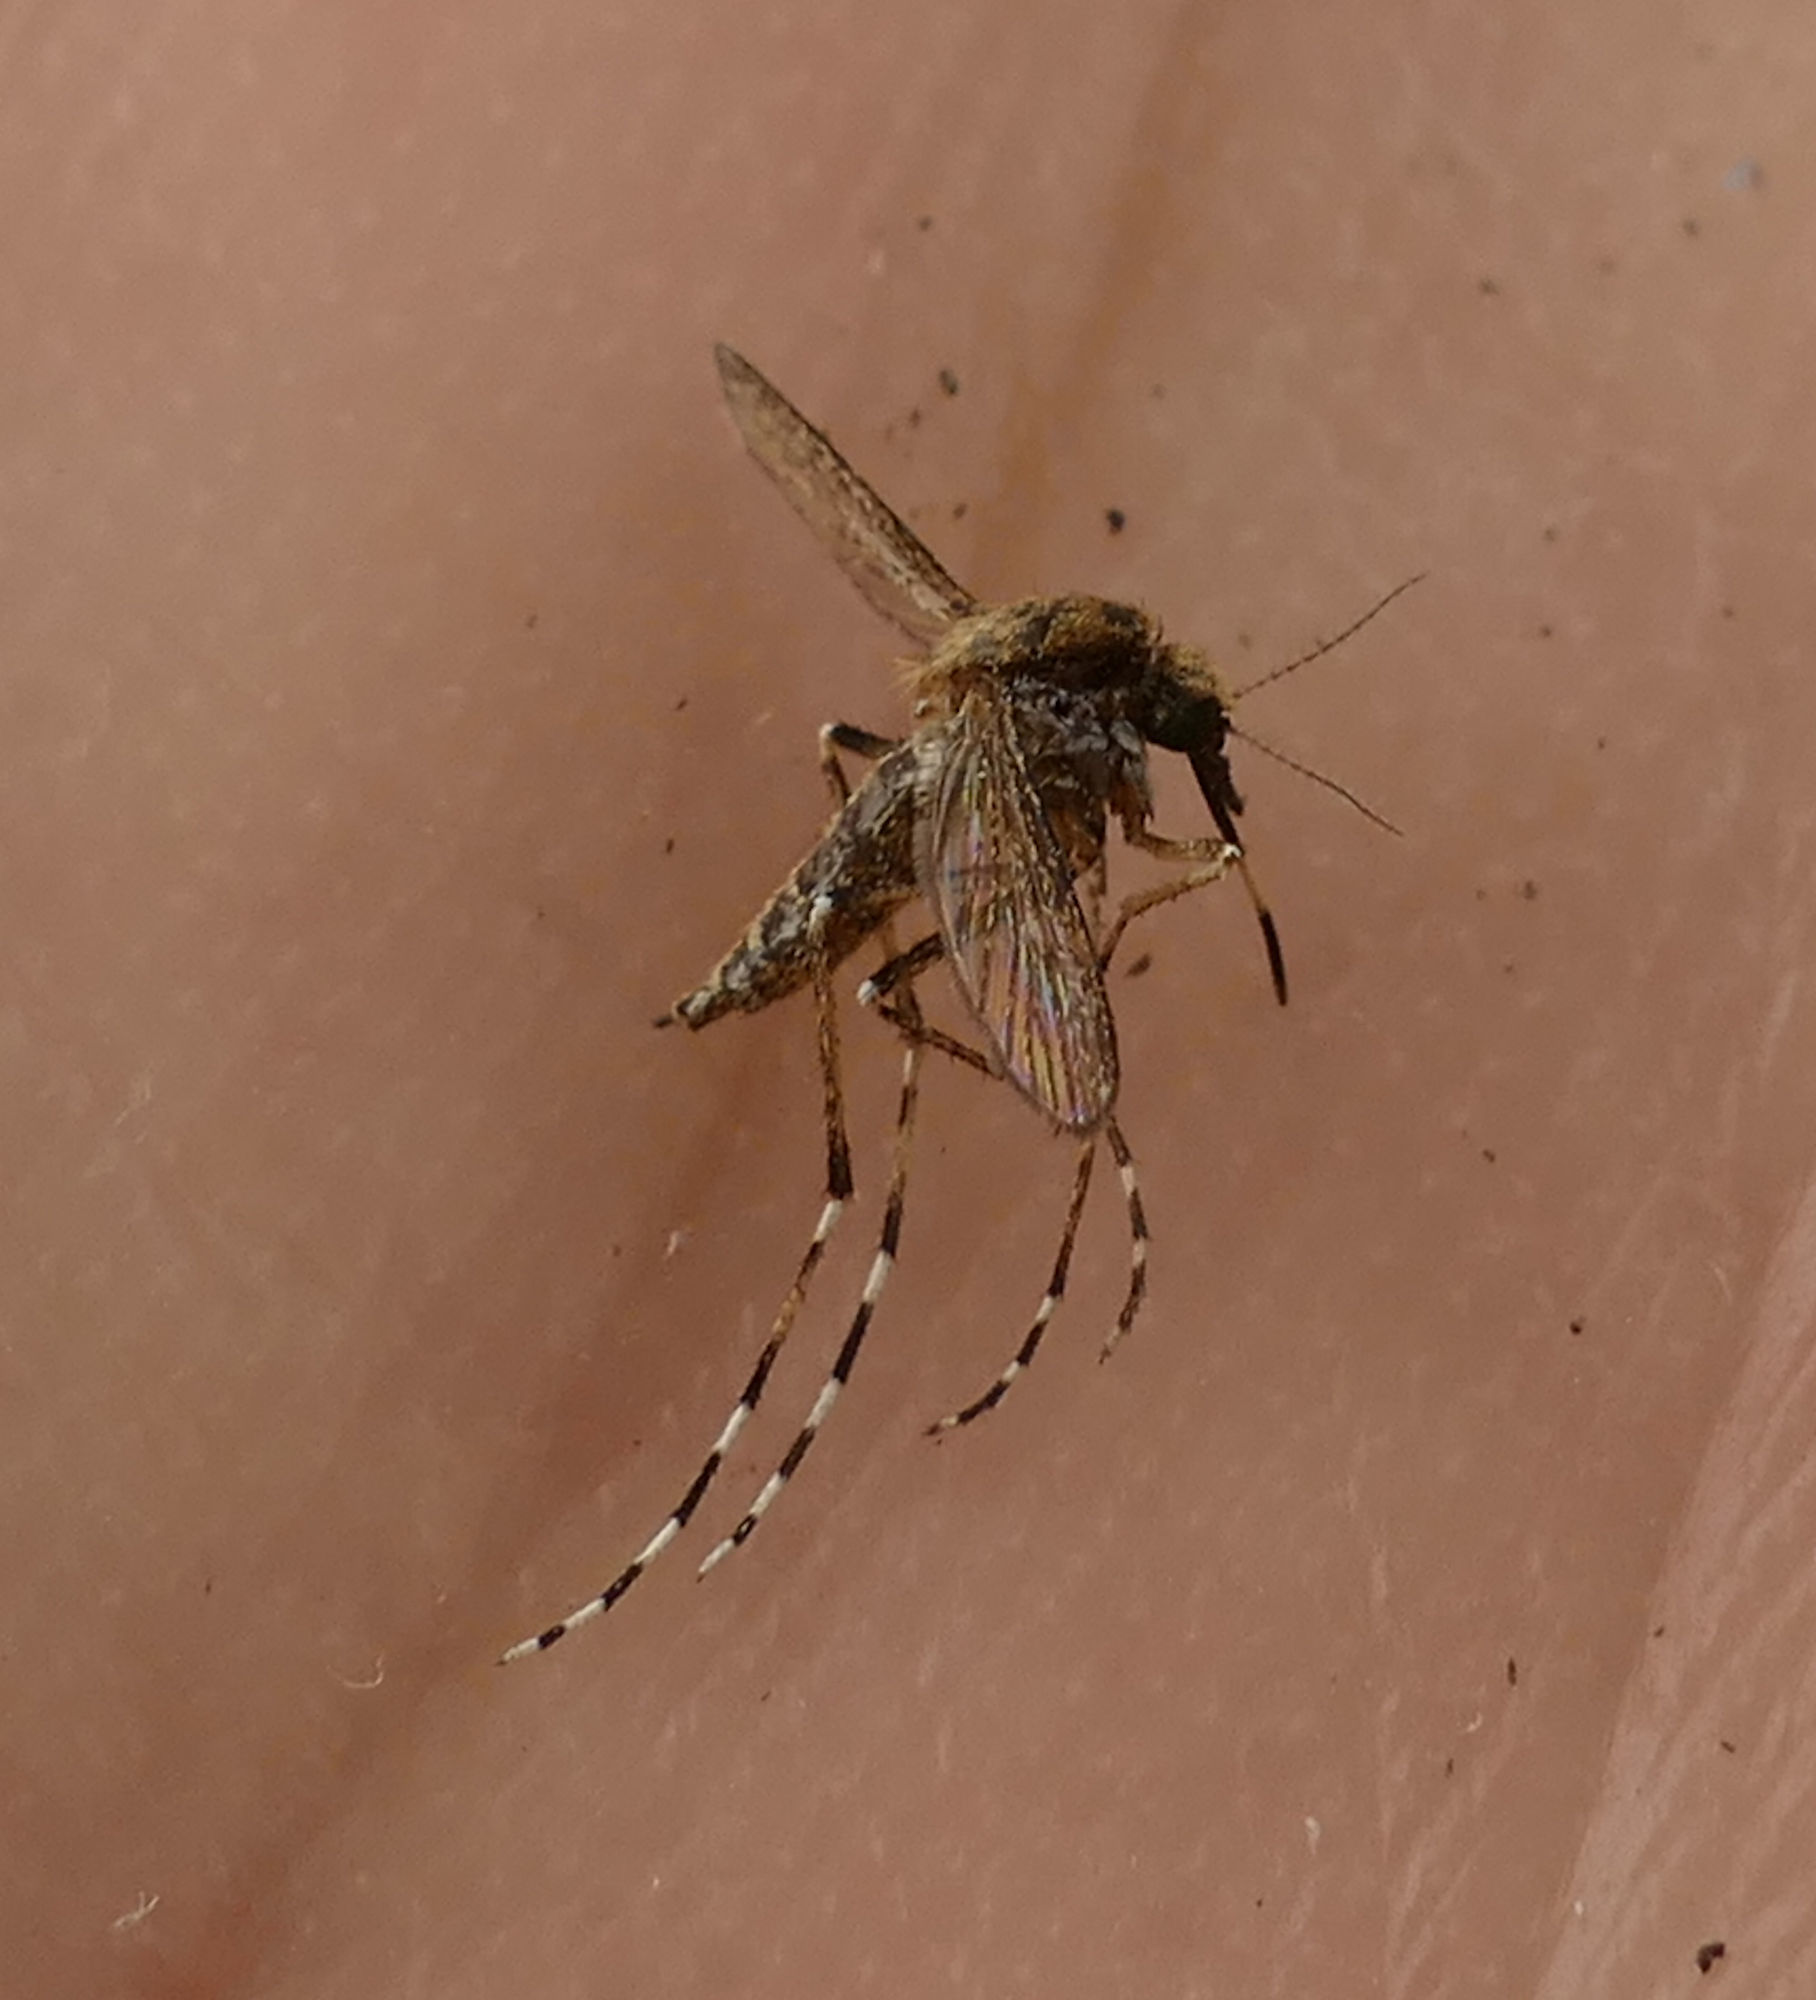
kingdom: Animalia
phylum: Arthropoda
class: Insecta
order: Diptera
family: Culicidae
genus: Aedes
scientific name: Aedes sollicitans
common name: Saltmarsh mosquito
